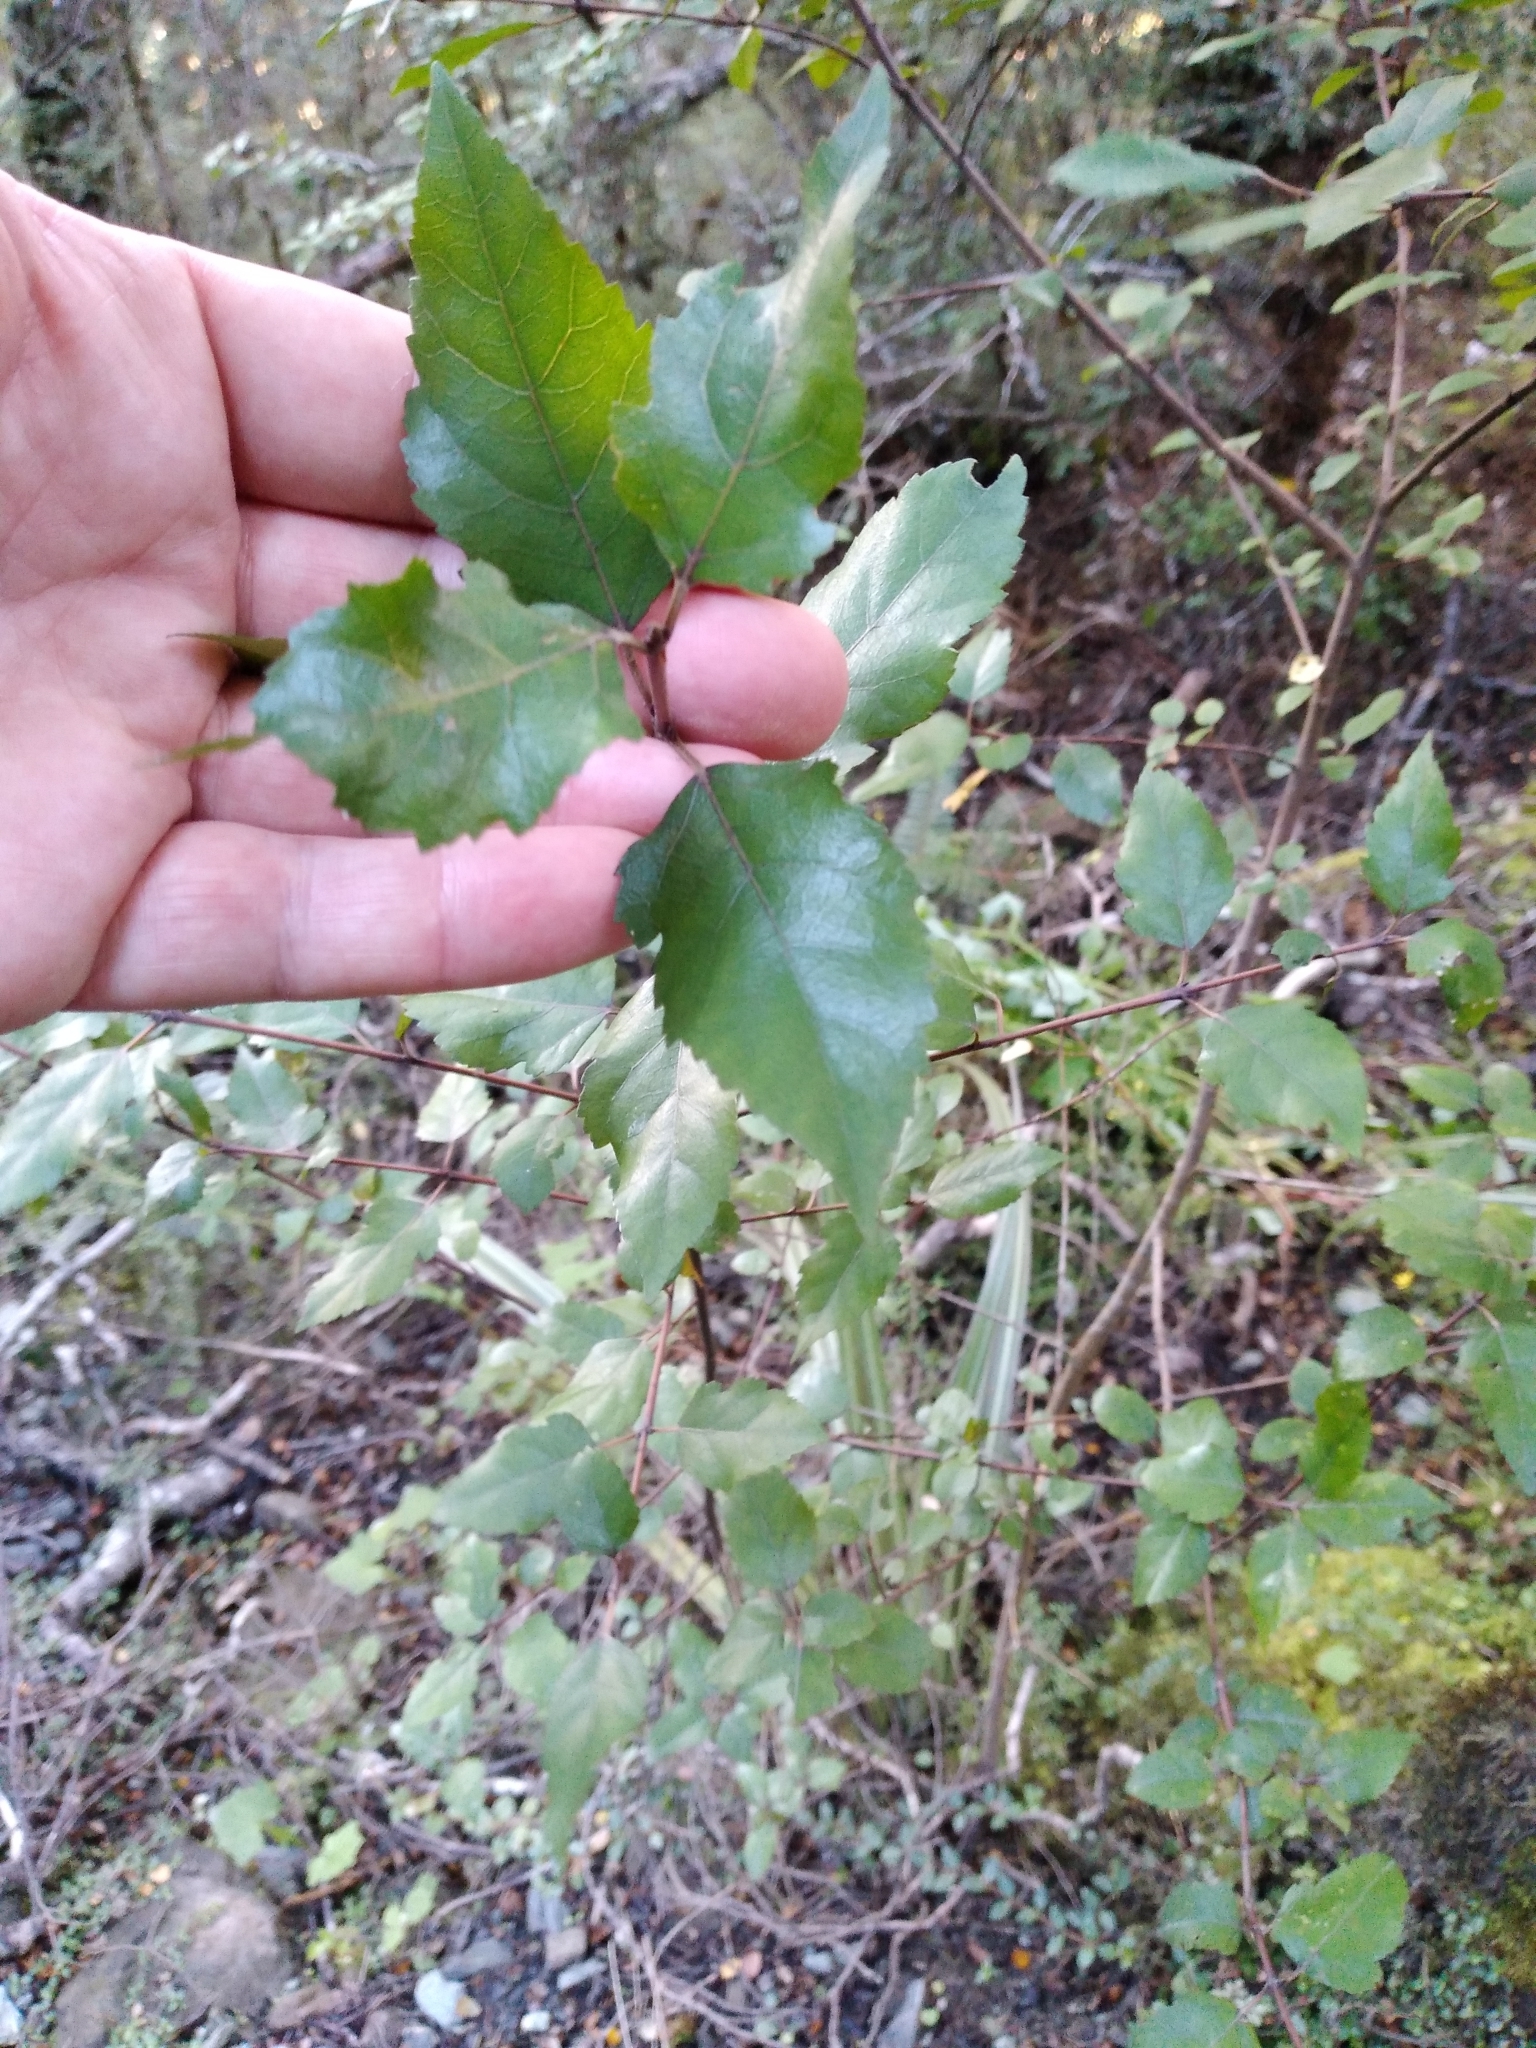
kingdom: Plantae
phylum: Tracheophyta
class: Magnoliopsida
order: Oxalidales
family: Elaeocarpaceae
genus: Aristotelia
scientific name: Aristotelia
